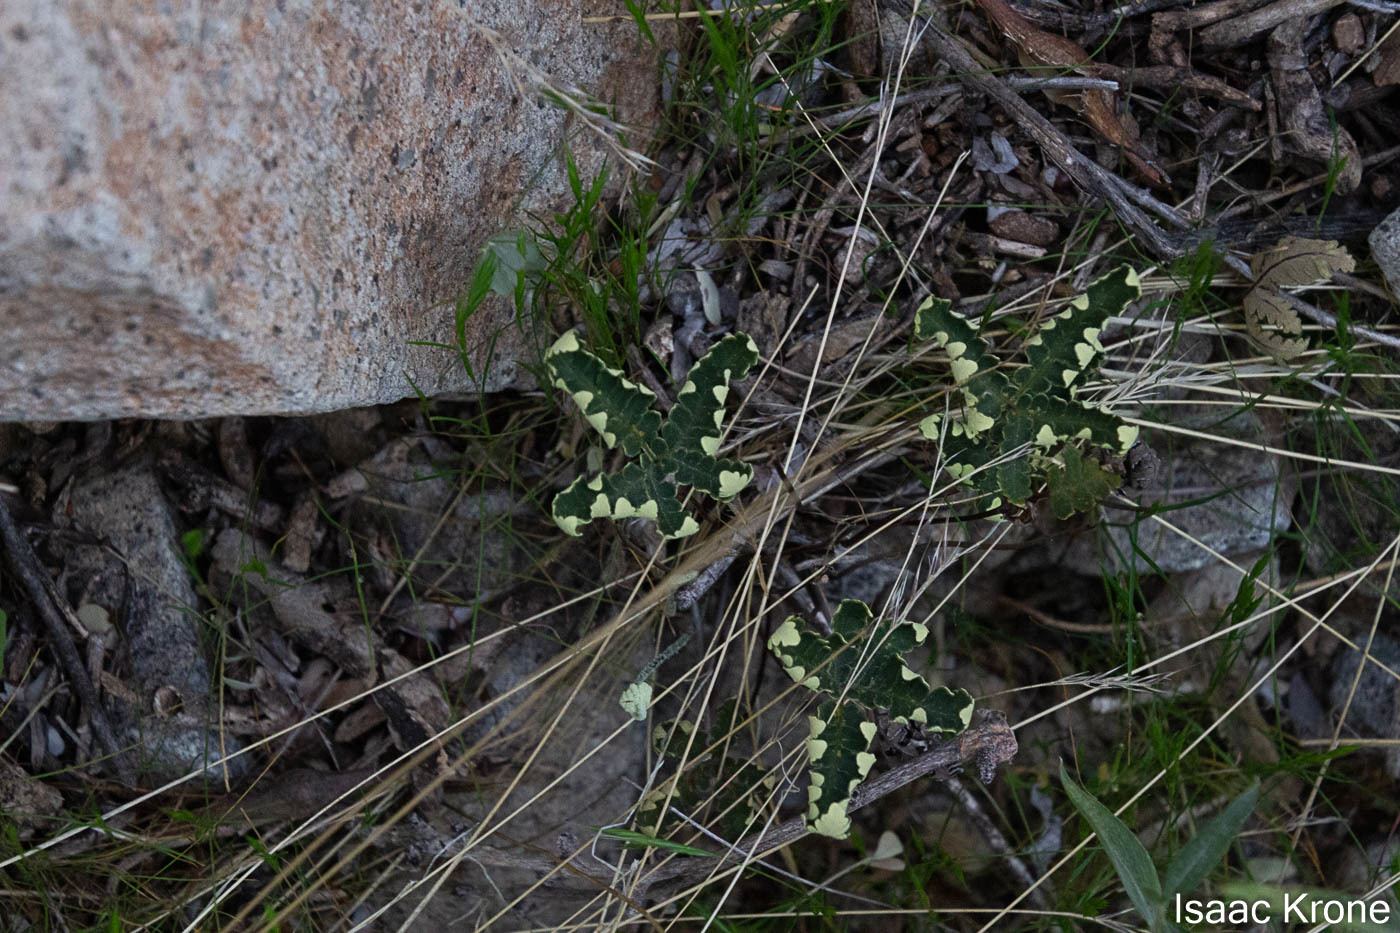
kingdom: Plantae
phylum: Tracheophyta
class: Polypodiopsida
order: Polypodiales
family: Pteridaceae
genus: Notholaena
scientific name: Notholaena standleyi
